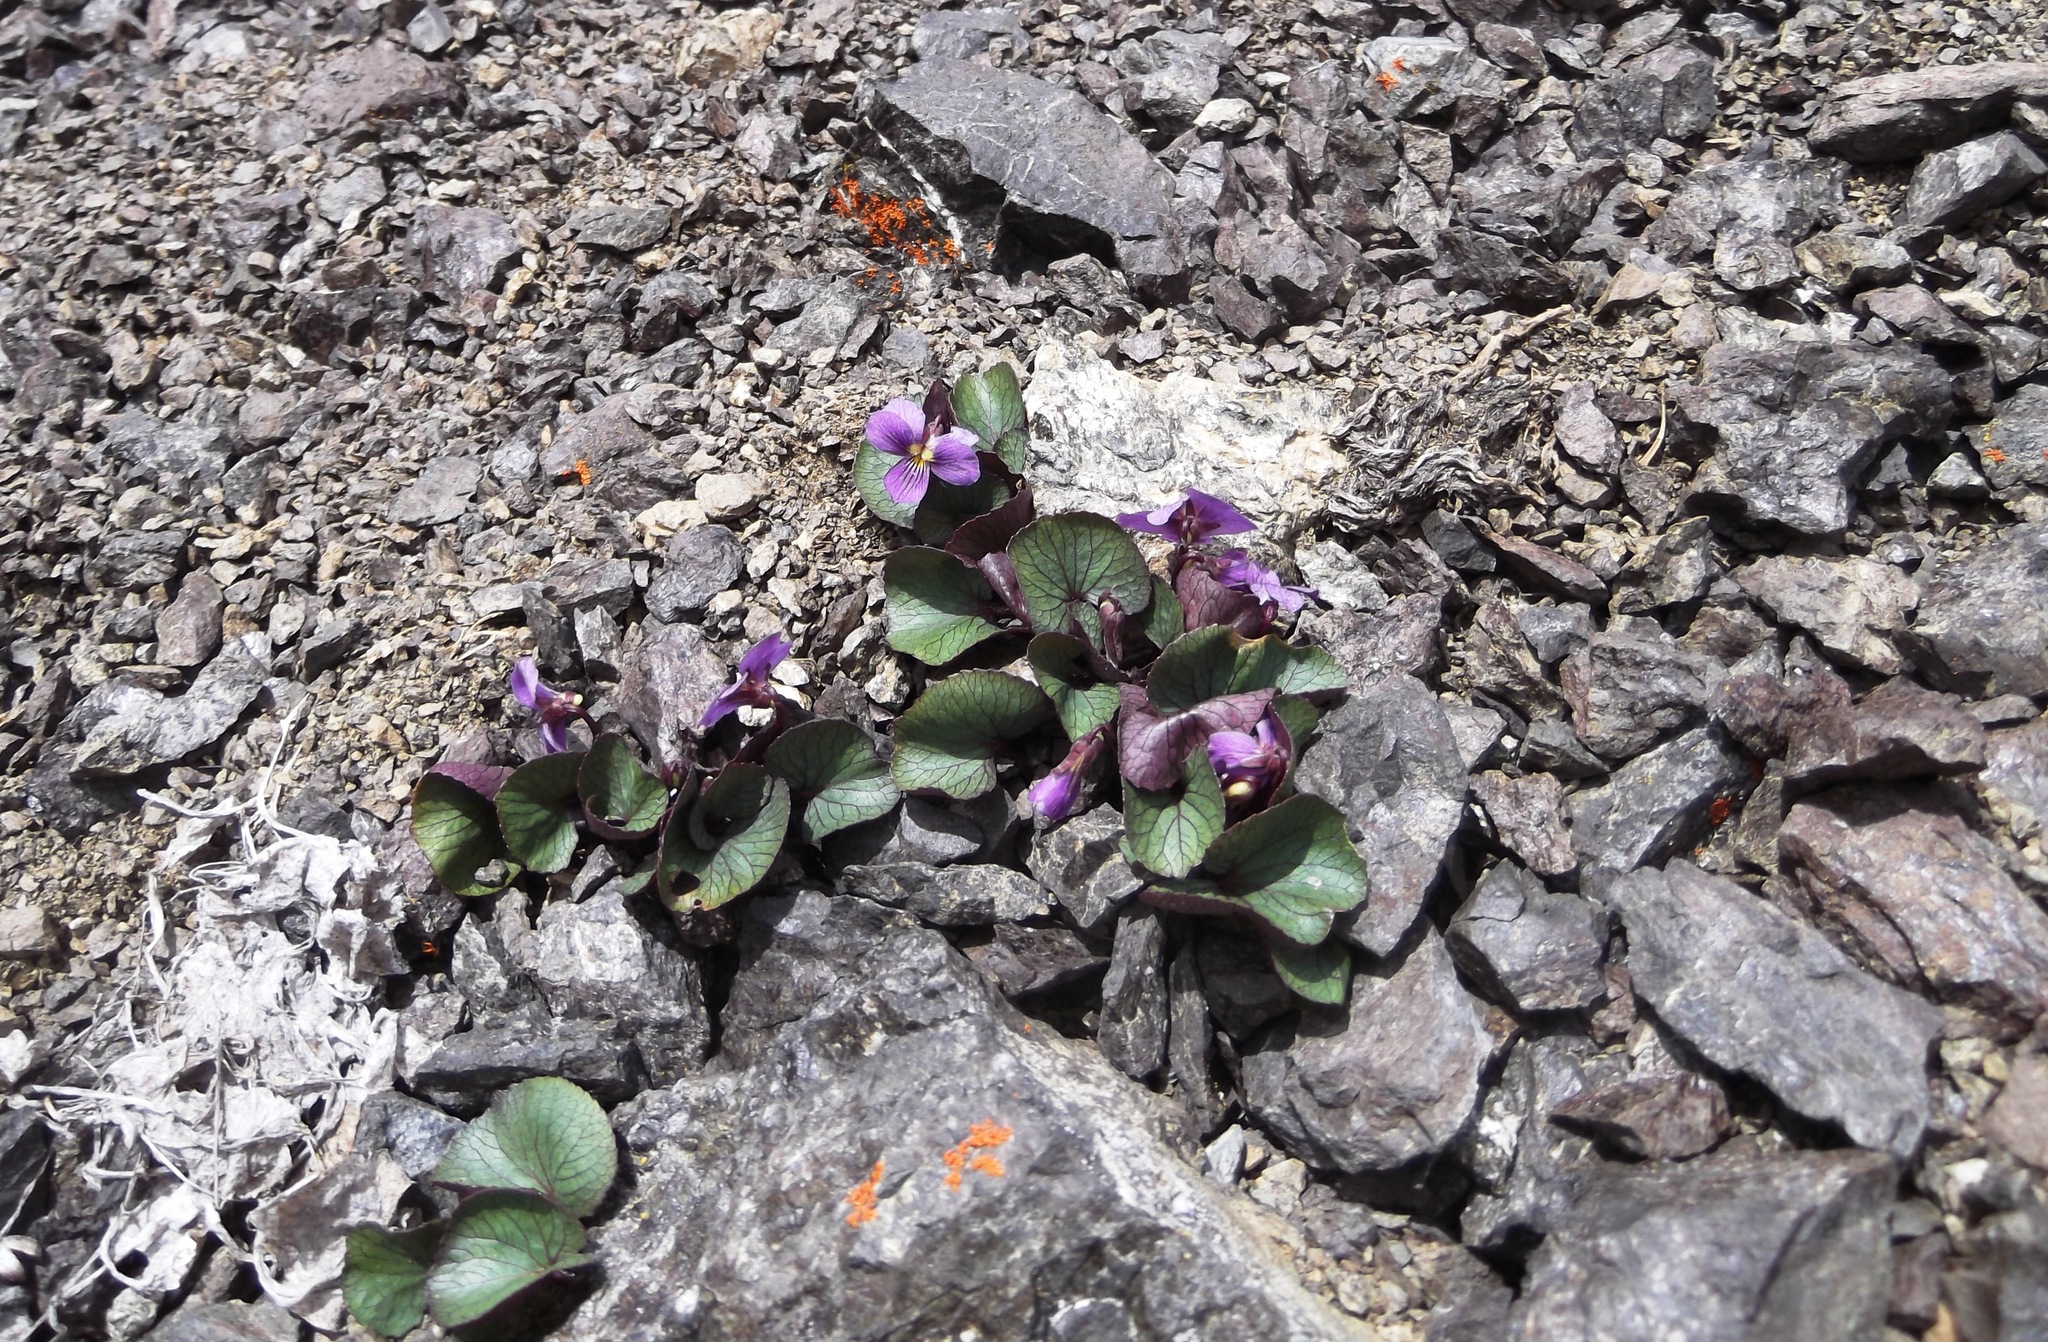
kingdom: Plantae
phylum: Tracheophyta
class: Magnoliopsida
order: Malpighiales
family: Violaceae
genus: Viola
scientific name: Viola flettii
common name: Rock violet
